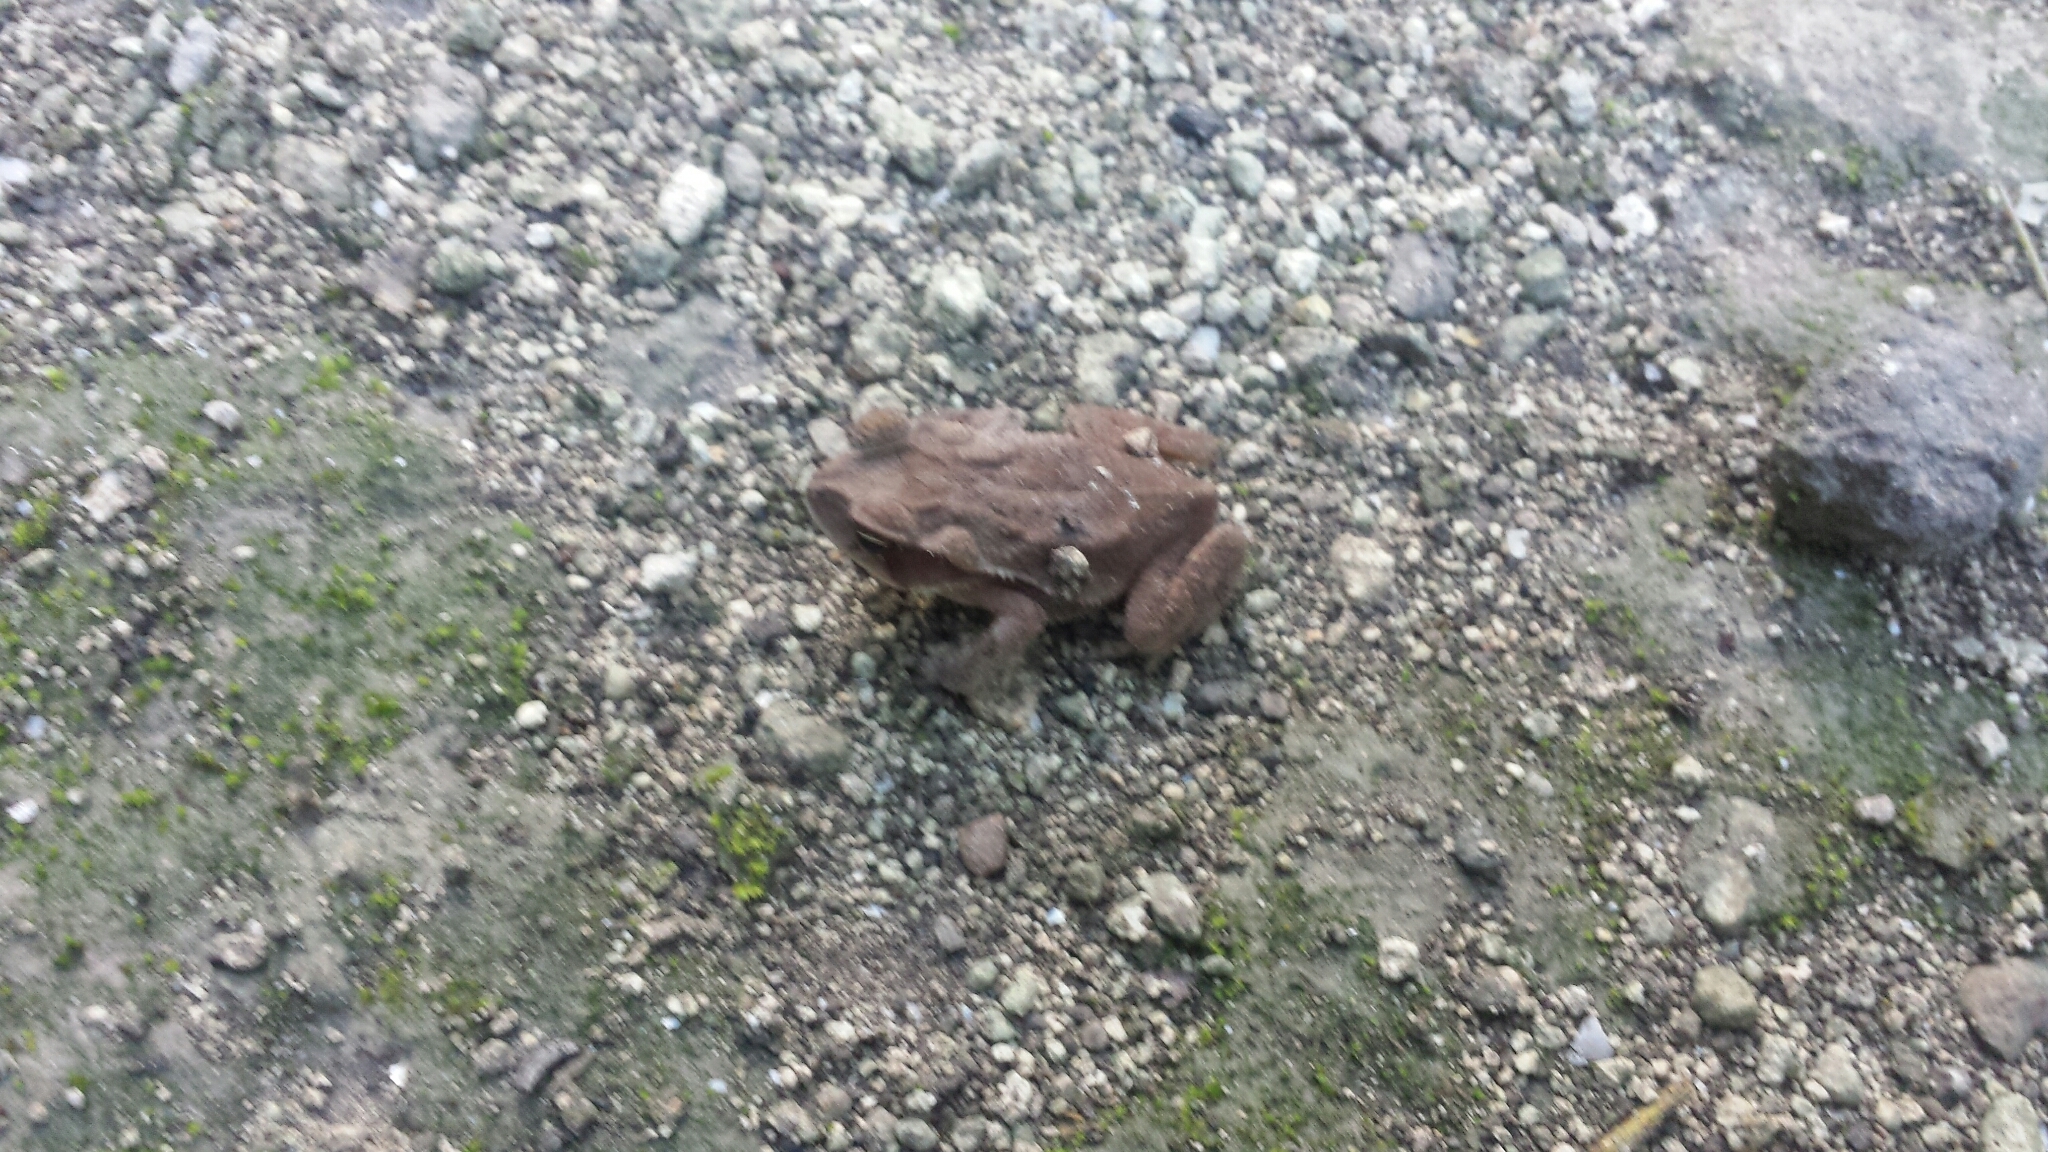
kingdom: Animalia
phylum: Chordata
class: Amphibia
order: Anura
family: Bufonidae
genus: Incilius
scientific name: Incilius valliceps
